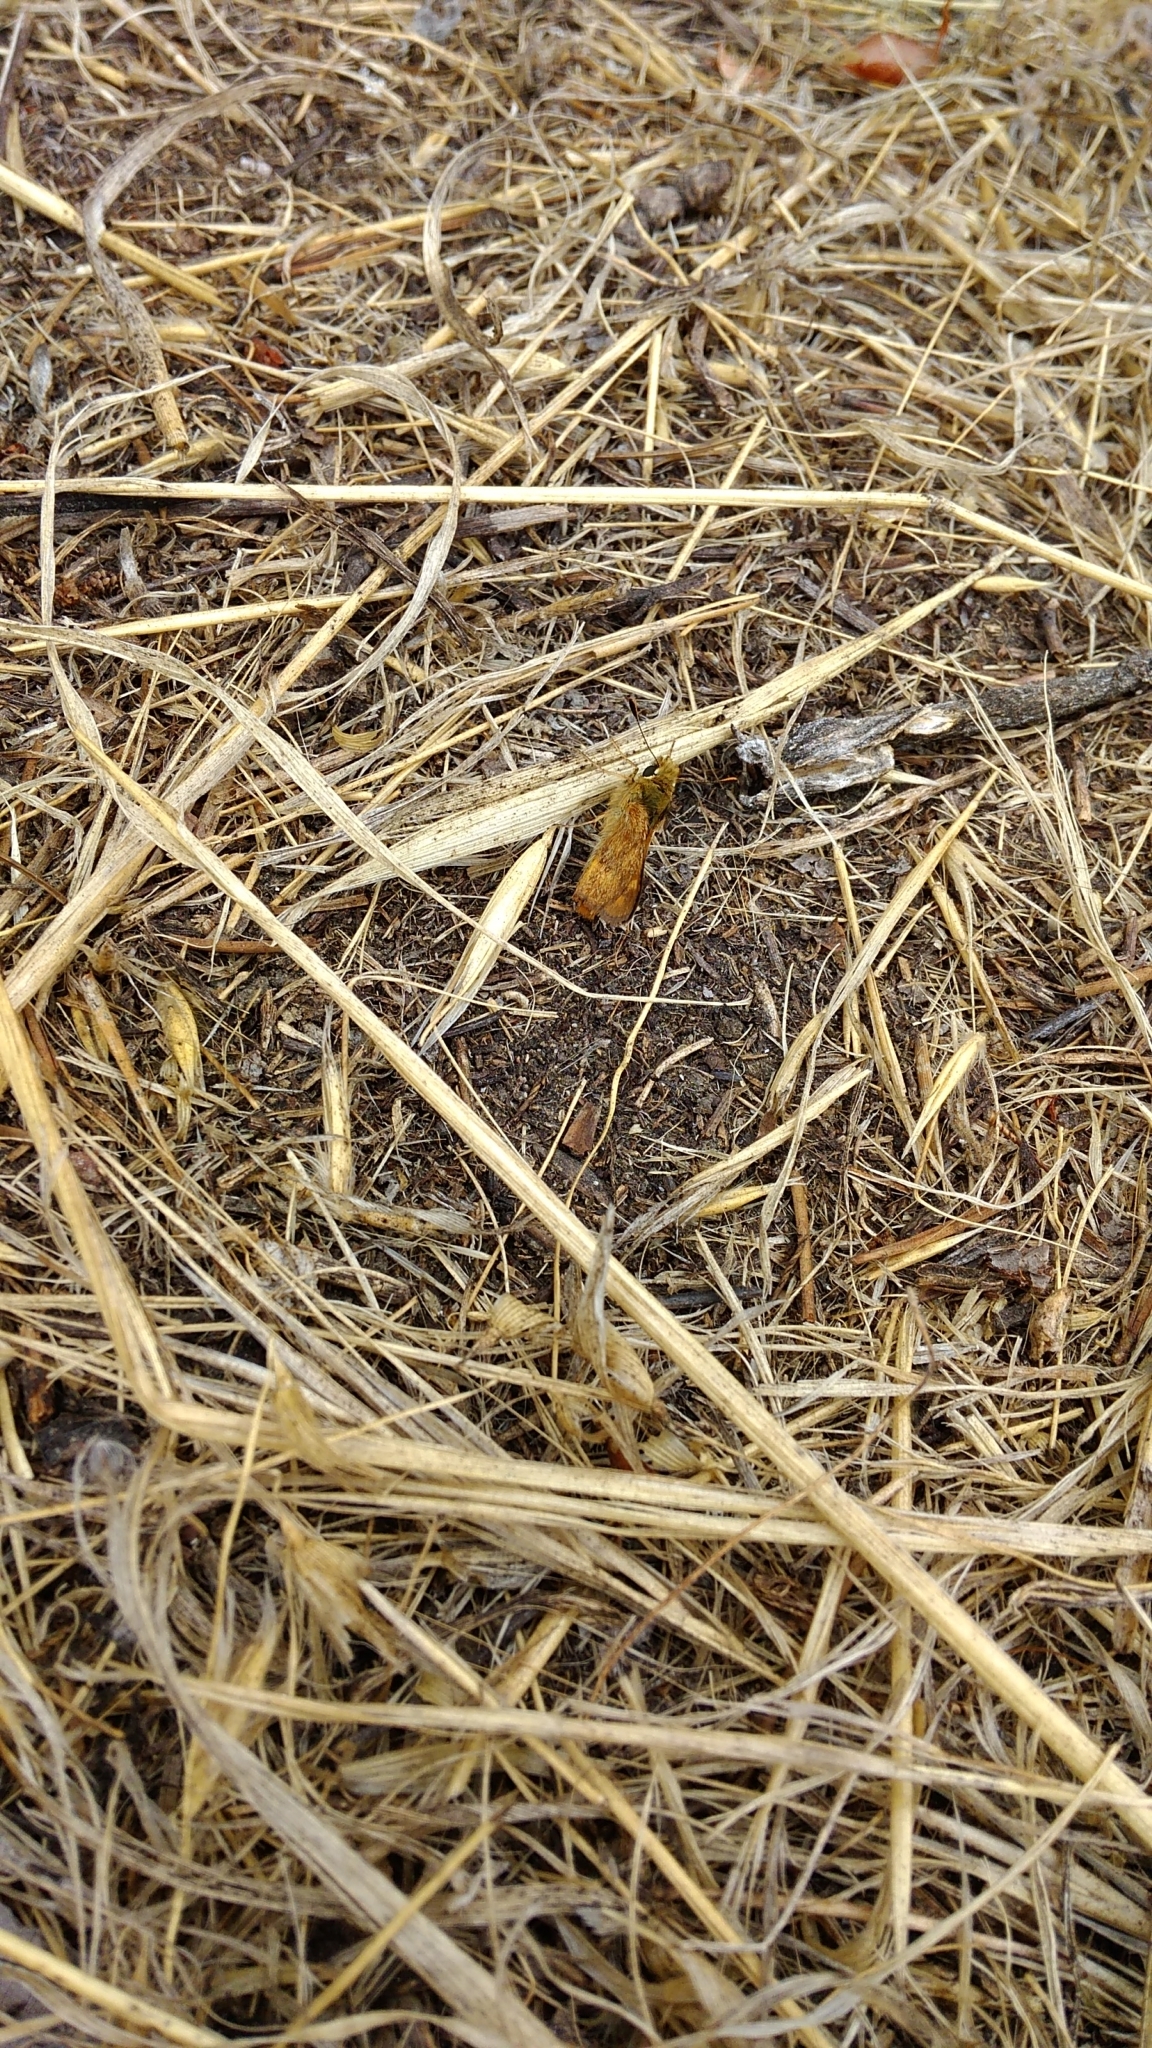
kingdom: Animalia
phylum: Arthropoda
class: Insecta
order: Lepidoptera
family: Hesperiidae
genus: Ochlodes
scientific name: Ochlodes sylvanoides
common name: Woodland skipper
